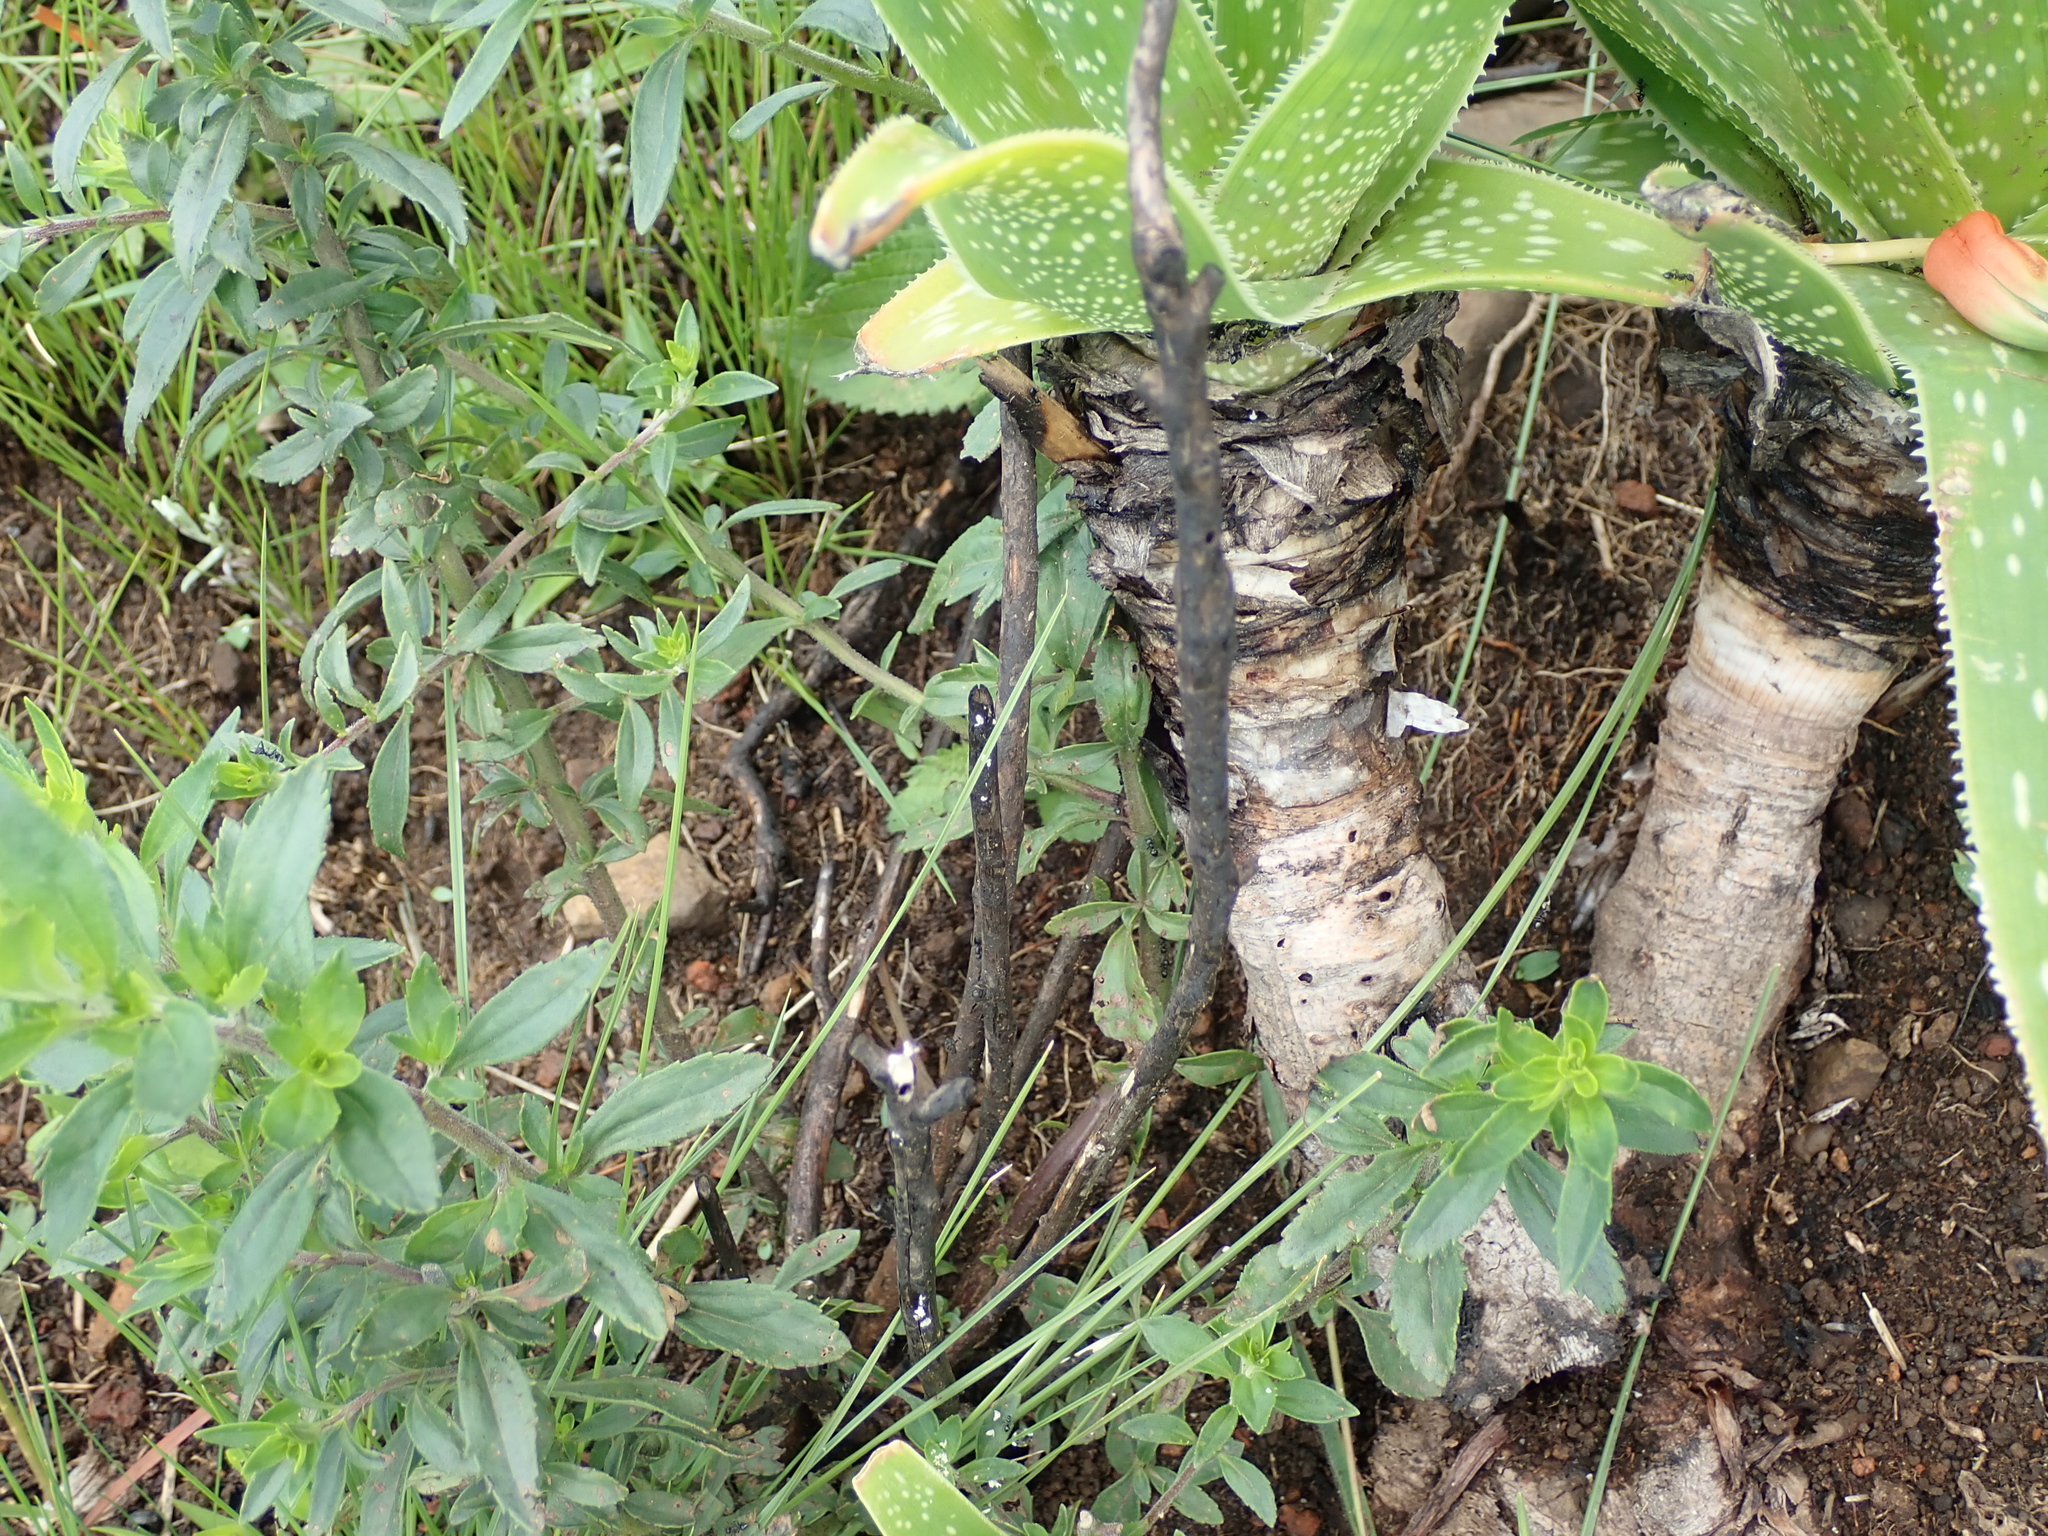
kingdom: Plantae
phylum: Tracheophyta
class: Liliopsida
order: Asparagales
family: Asphodelaceae
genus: Aloe
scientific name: Aloe neilcrouchii
